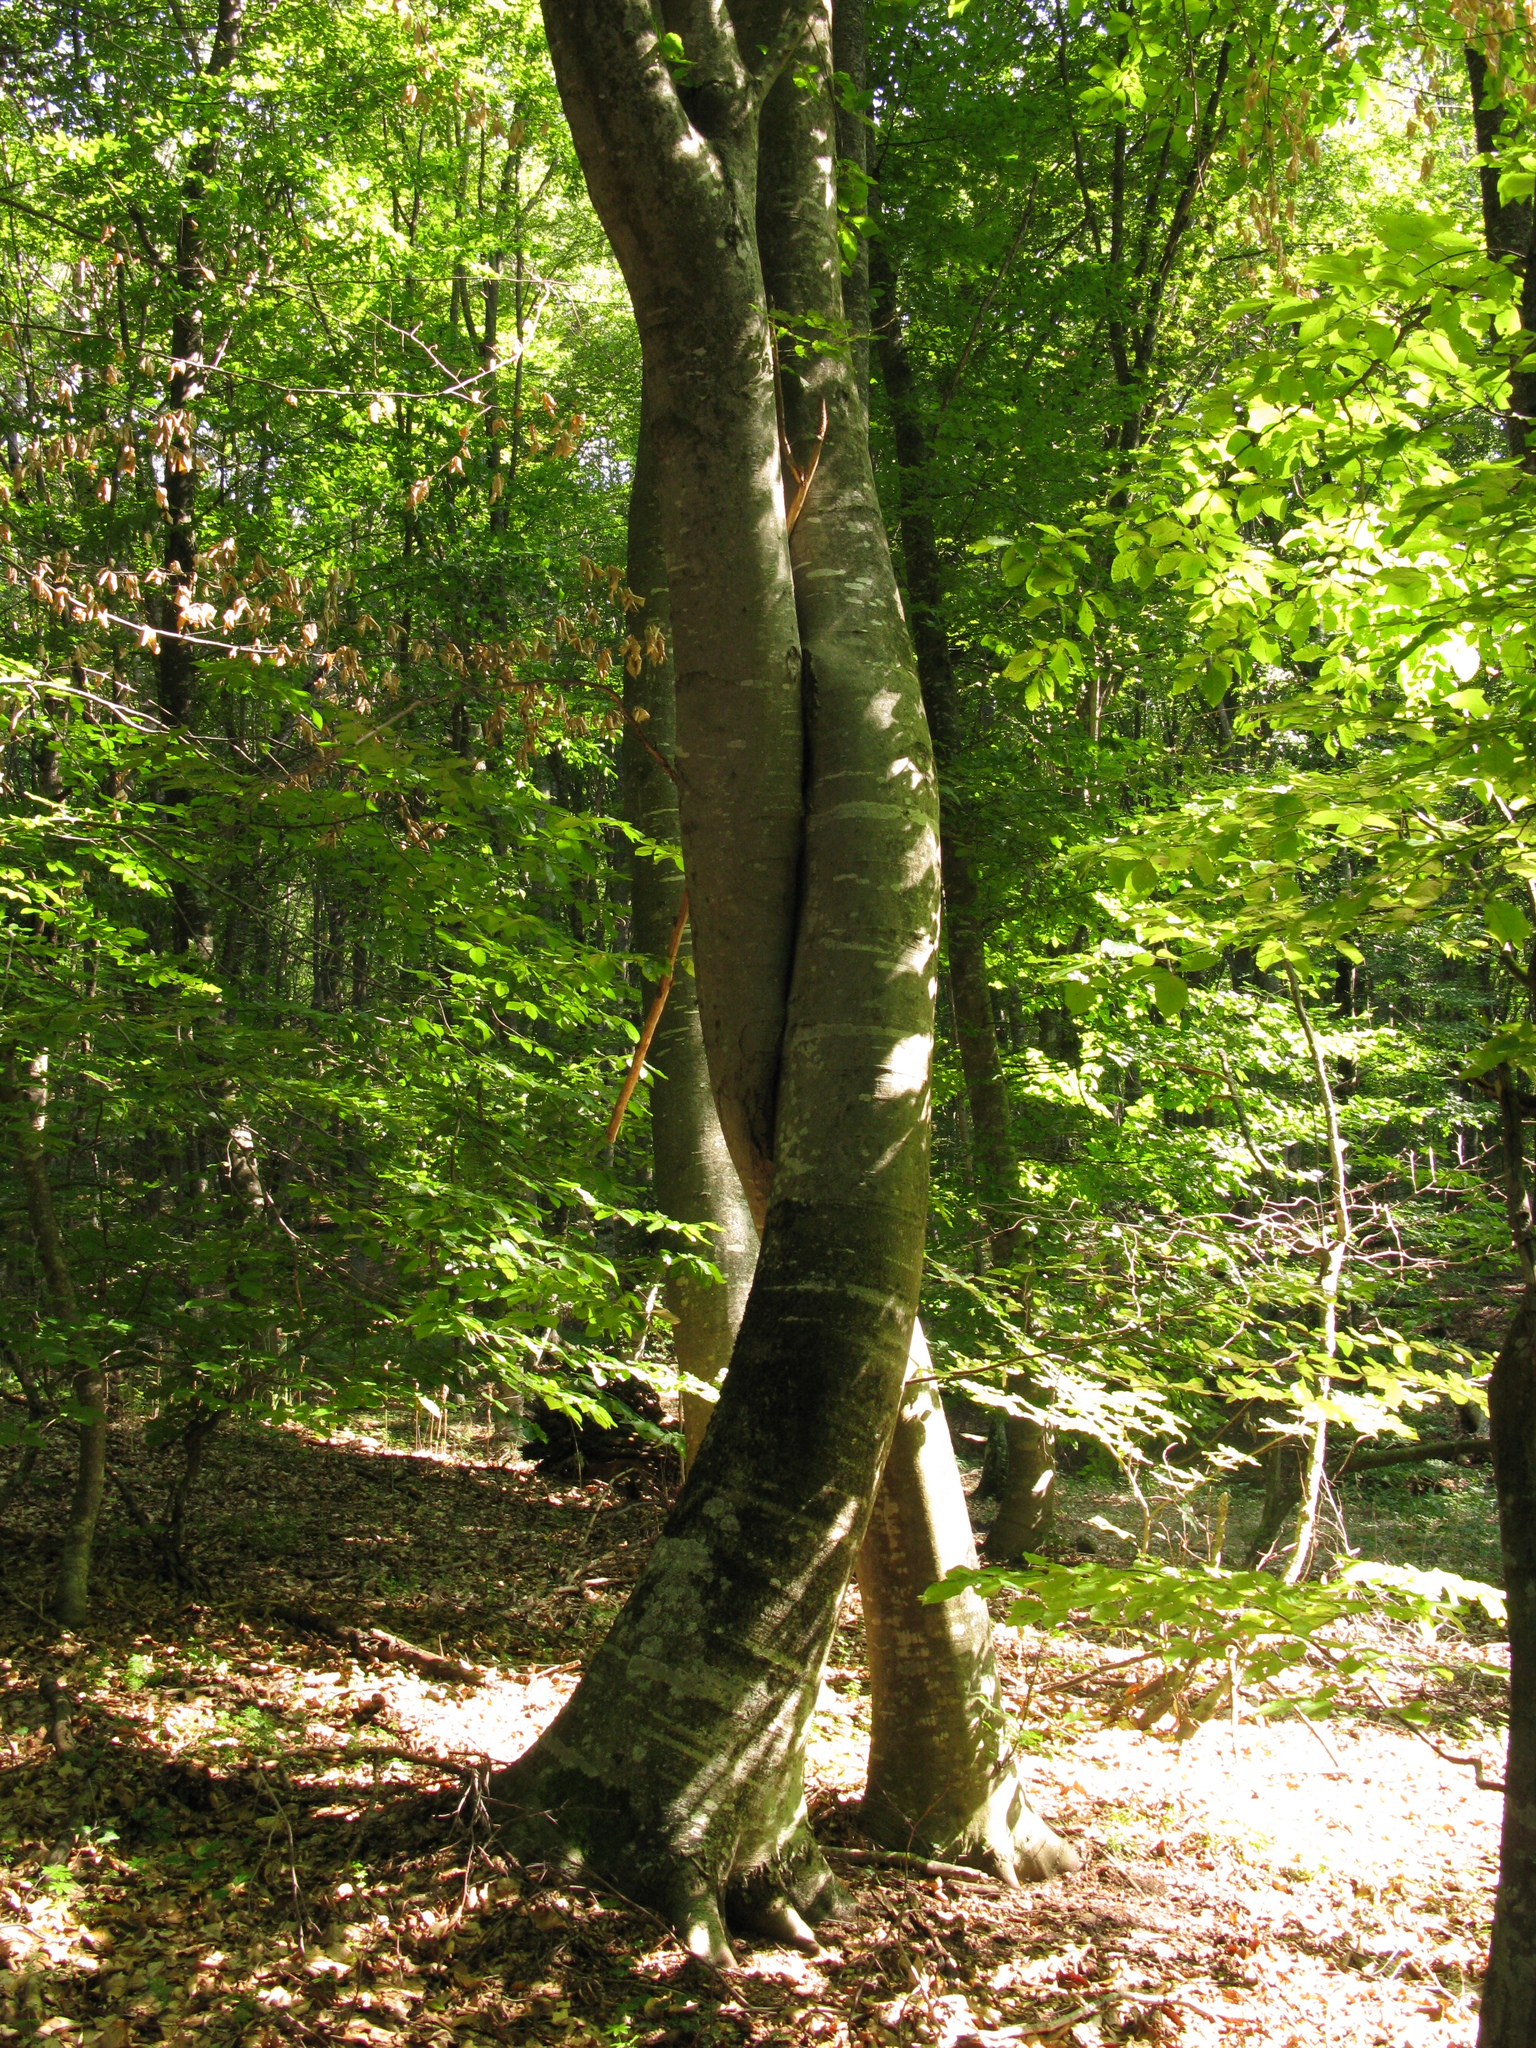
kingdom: Plantae
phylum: Tracheophyta
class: Magnoliopsida
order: Fagales
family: Fagaceae
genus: Fagus
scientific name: Fagus taurica
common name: Crimean beech
